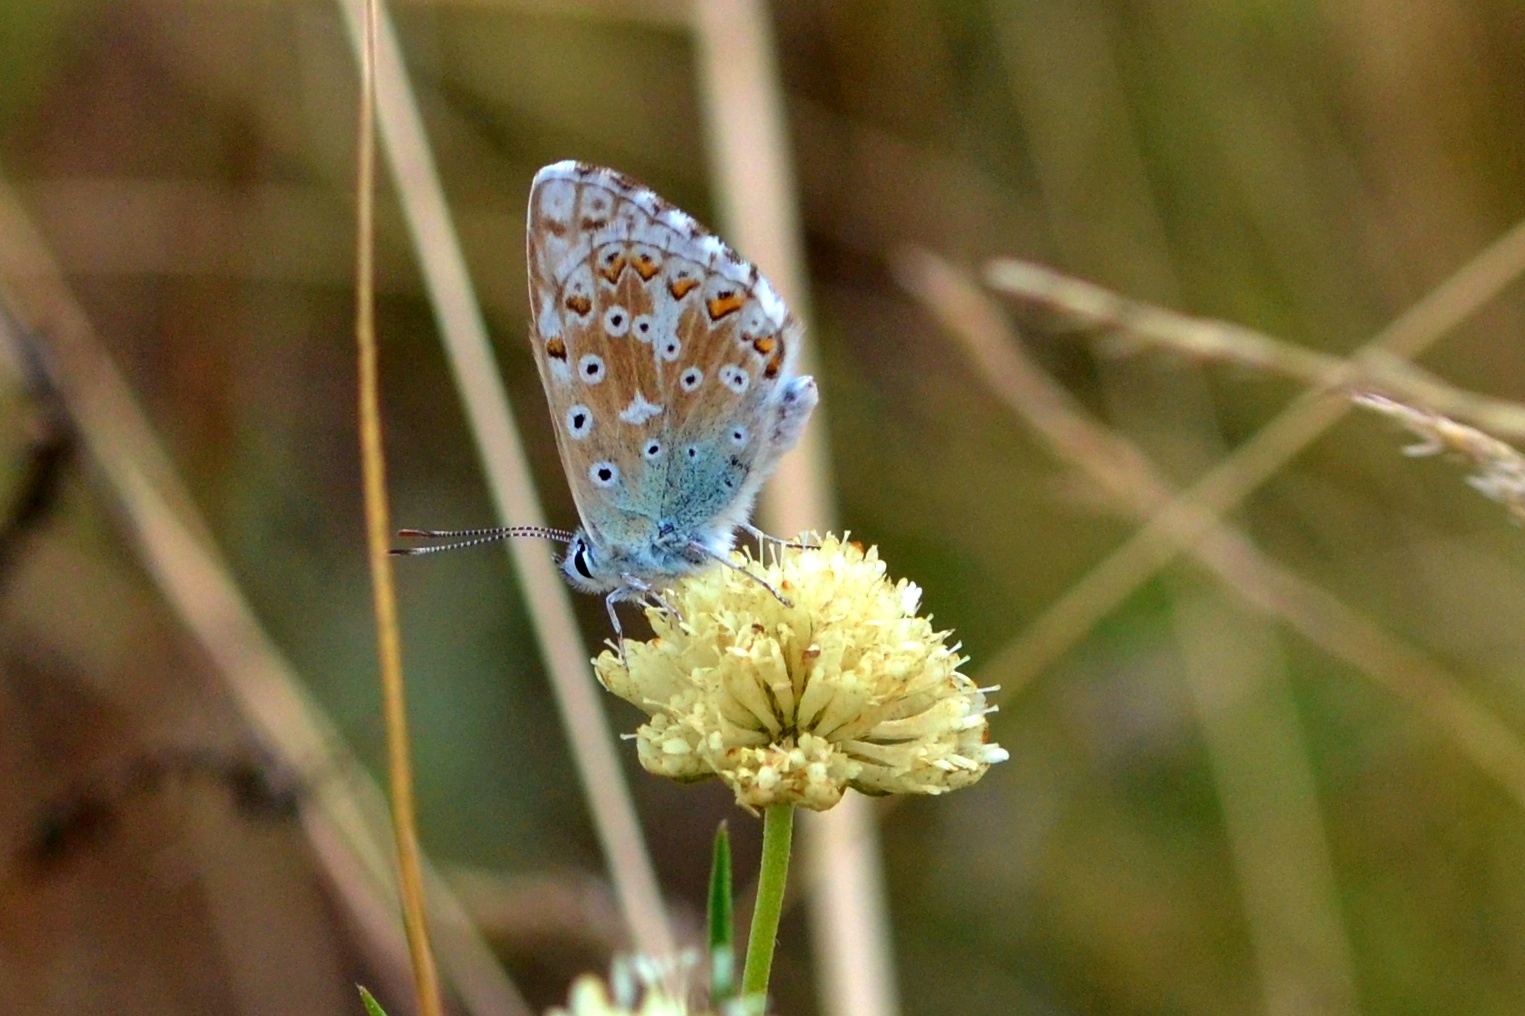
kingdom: Animalia
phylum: Arthropoda
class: Insecta
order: Lepidoptera
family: Lycaenidae
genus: Lysandra
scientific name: Lysandra coridon
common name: Chalkhill blue
